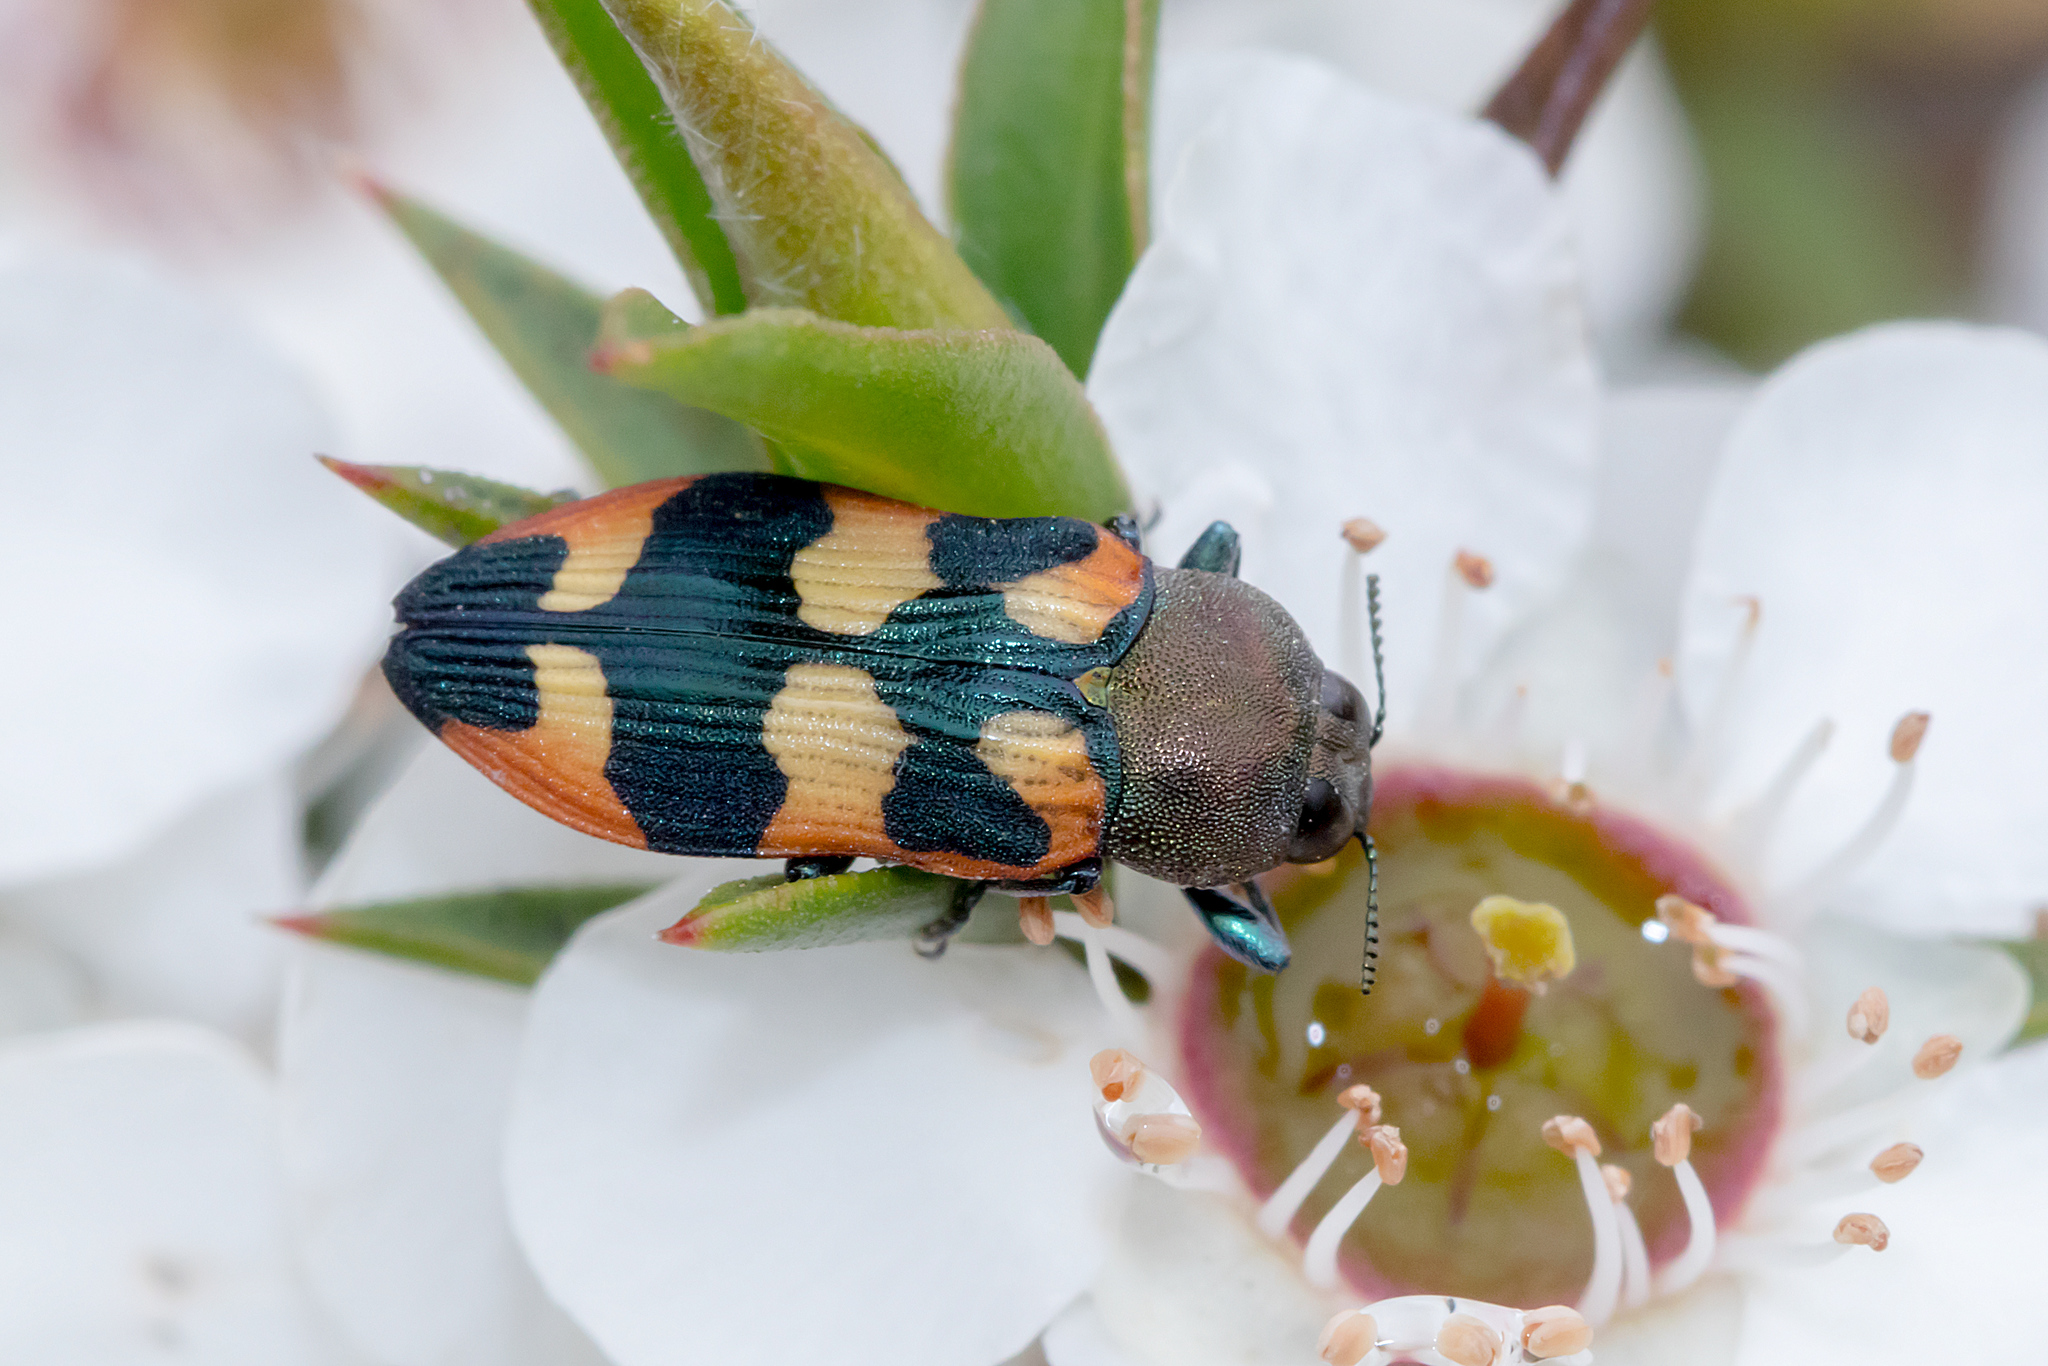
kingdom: Animalia
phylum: Arthropoda
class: Insecta
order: Coleoptera
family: Buprestidae
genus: Castiarina
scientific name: Castiarina sexplagiata
